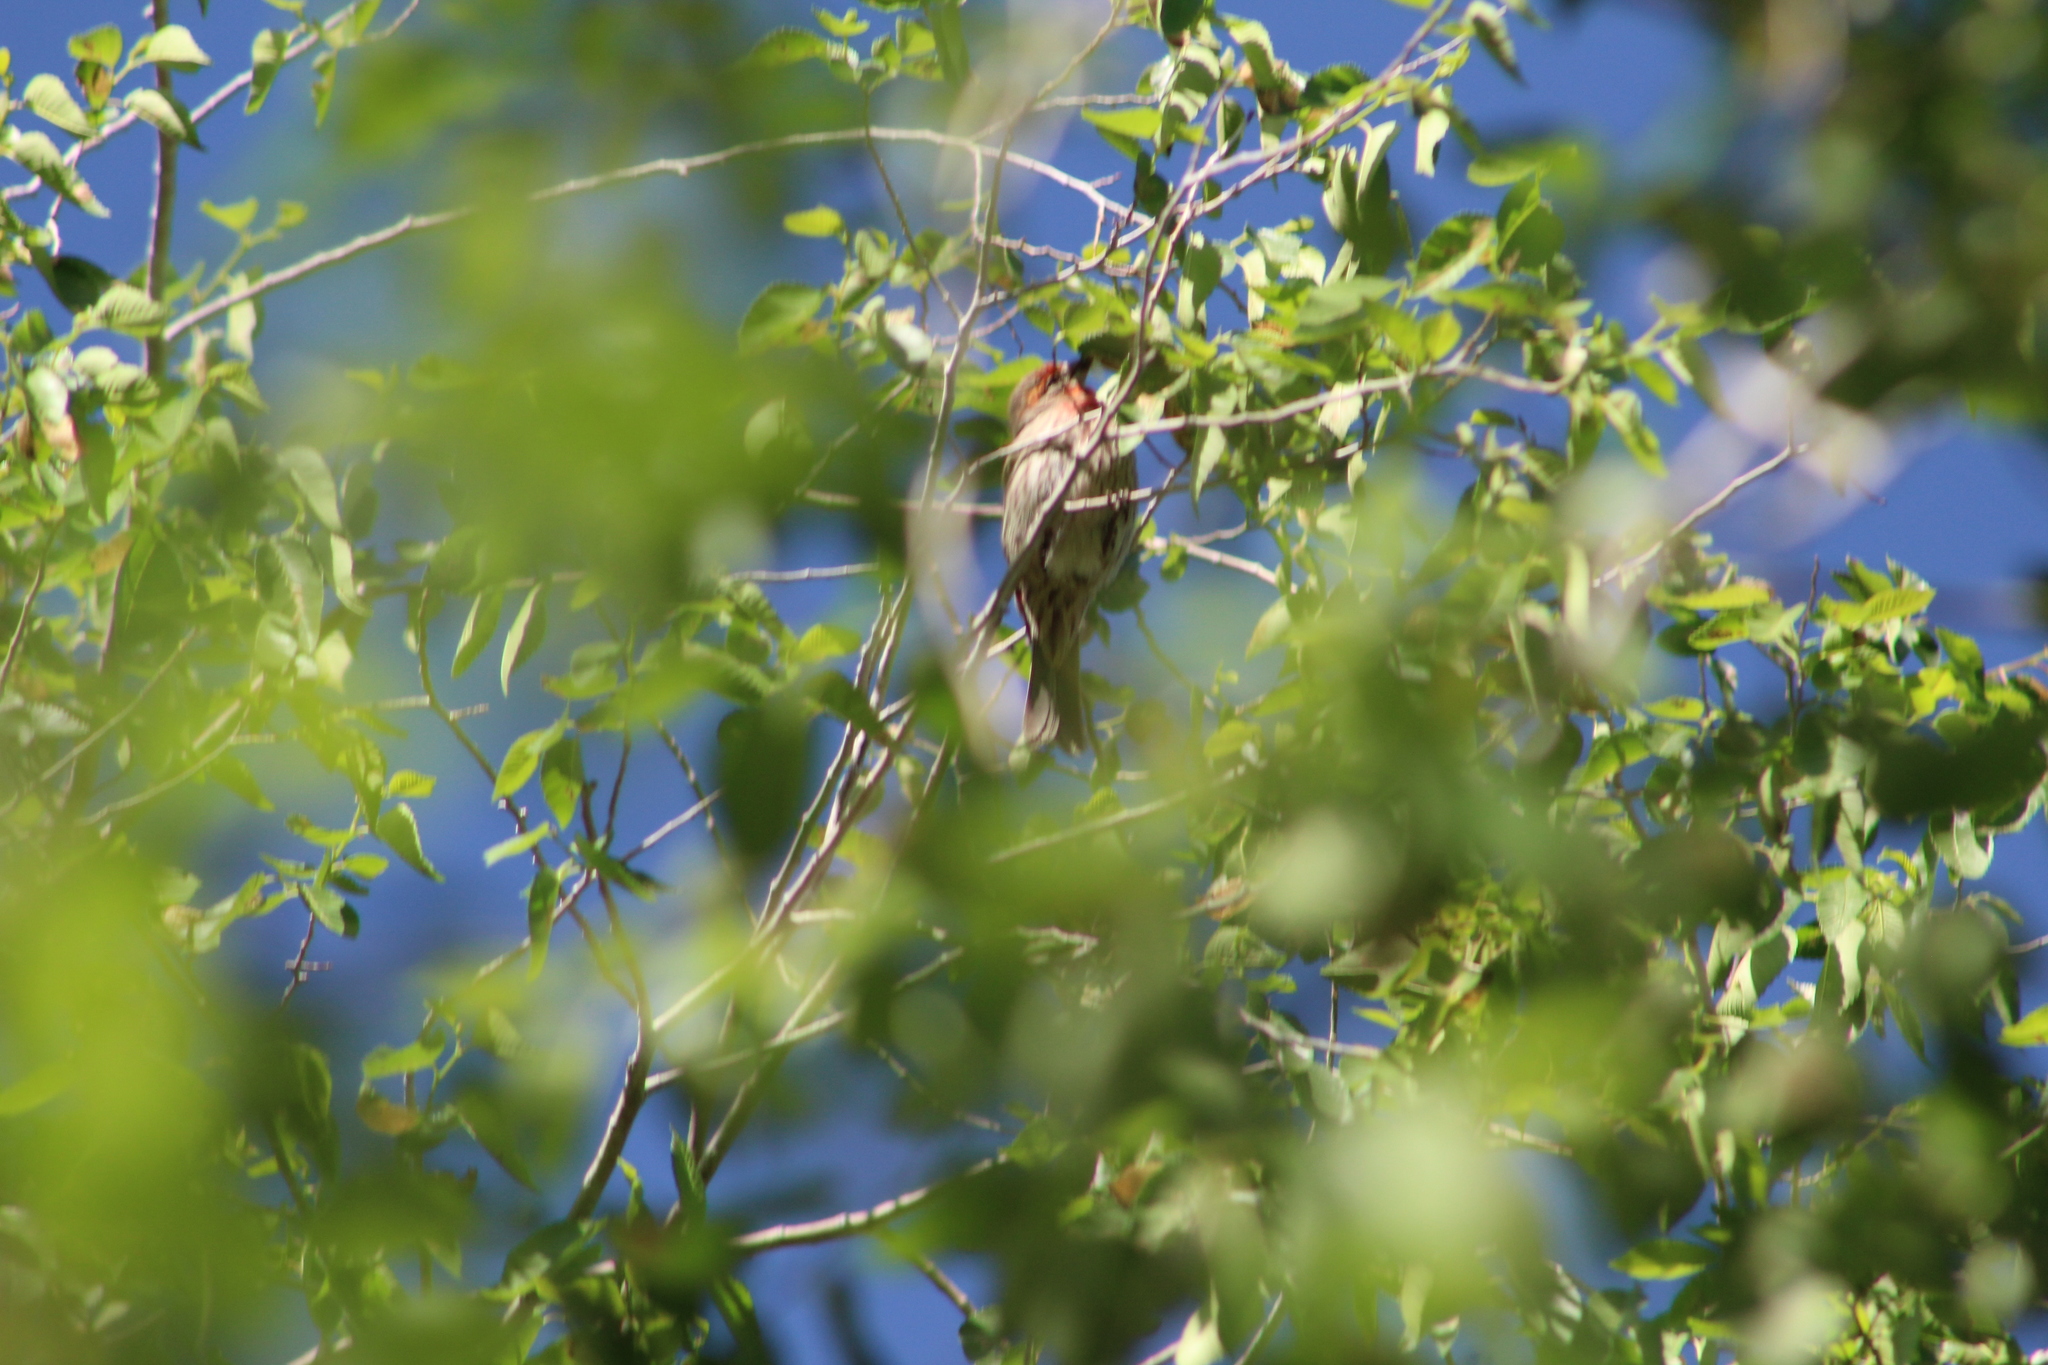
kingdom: Animalia
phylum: Chordata
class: Aves
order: Passeriformes
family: Fringillidae
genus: Haemorhous
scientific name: Haemorhous mexicanus
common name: House finch
